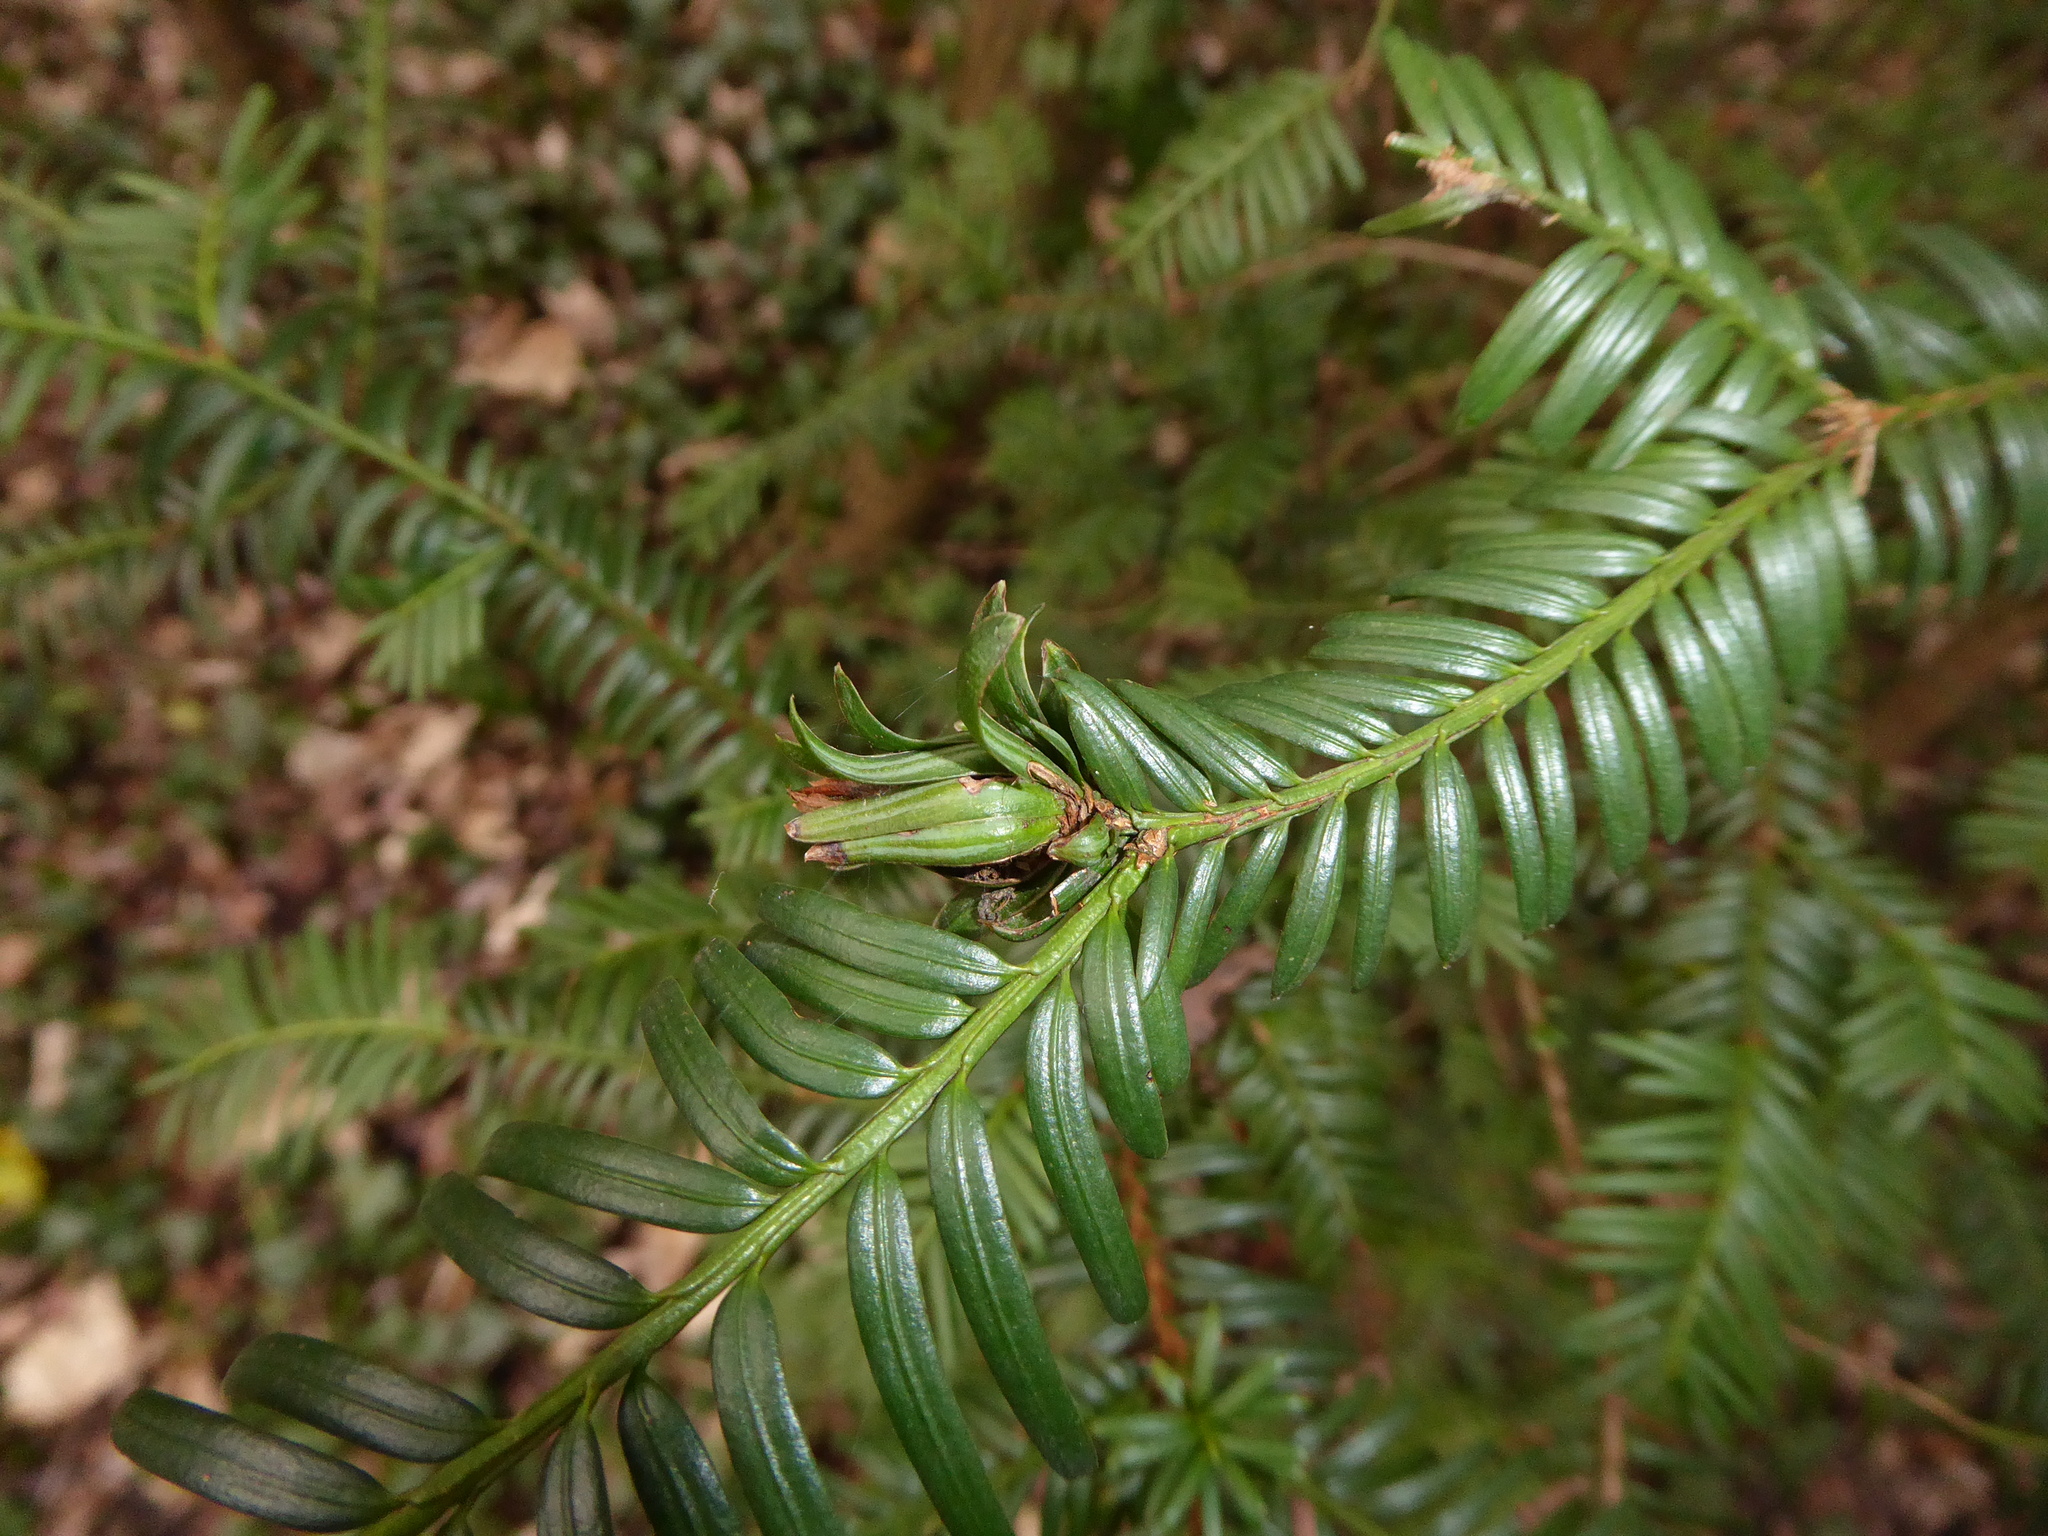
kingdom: Animalia
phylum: Arthropoda
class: Insecta
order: Diptera
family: Cecidomyiidae
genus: Taxomyia
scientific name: Taxomyia taxi
